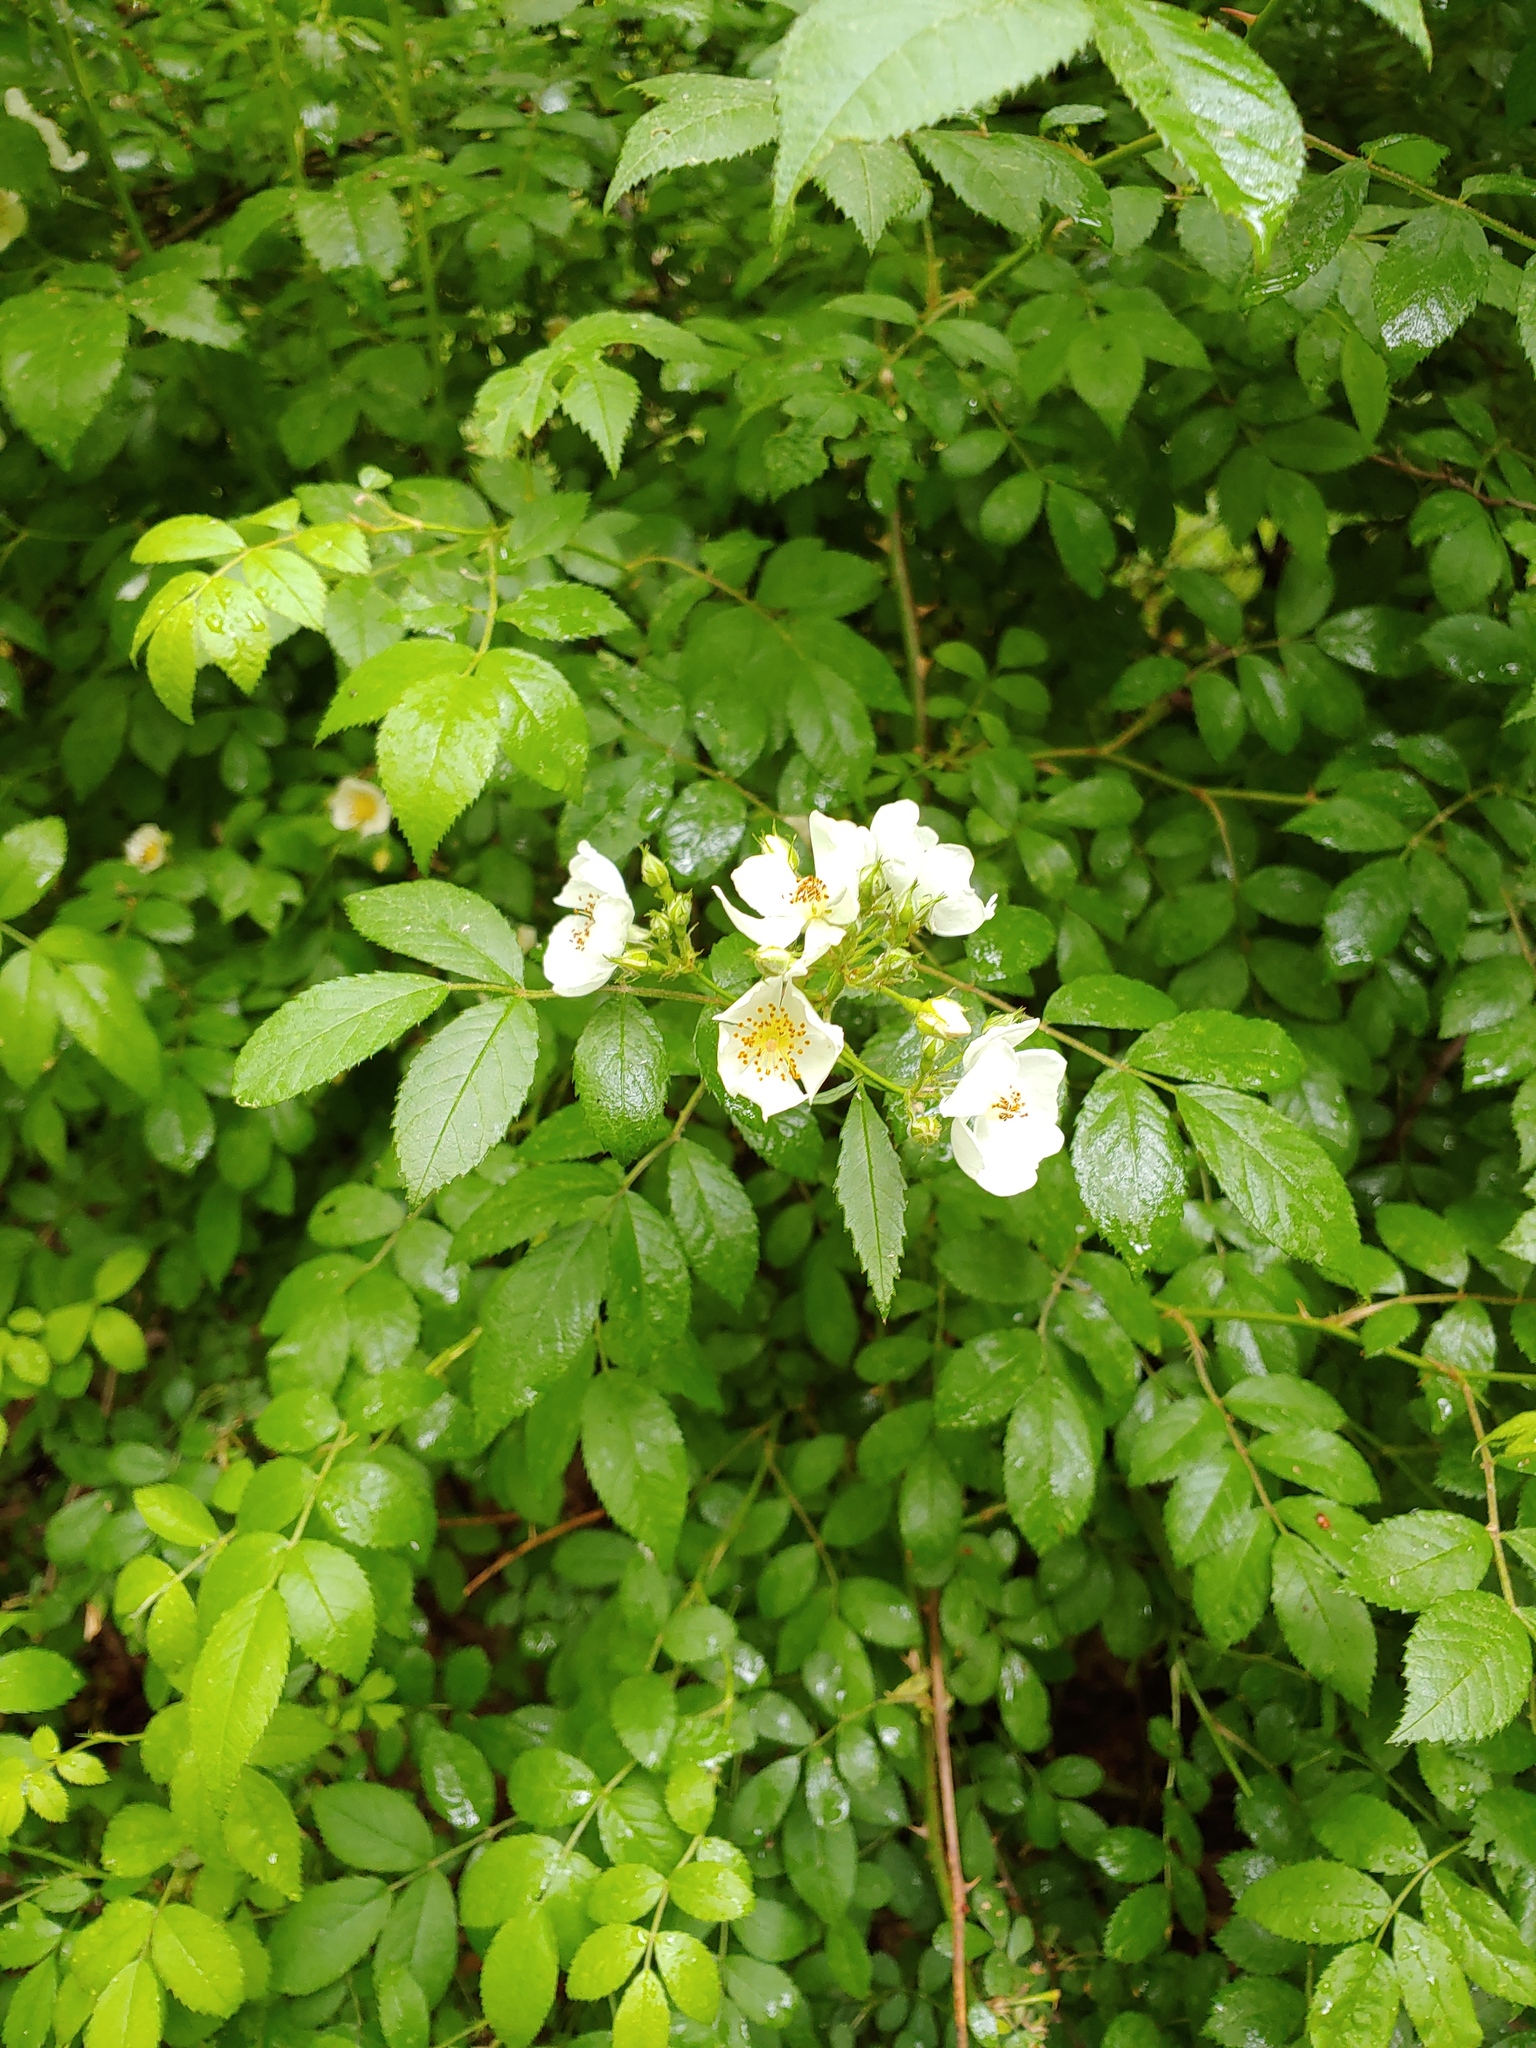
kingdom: Plantae
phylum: Tracheophyta
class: Magnoliopsida
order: Rosales
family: Rosaceae
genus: Rosa
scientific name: Rosa multiflora
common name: Multiflora rose
